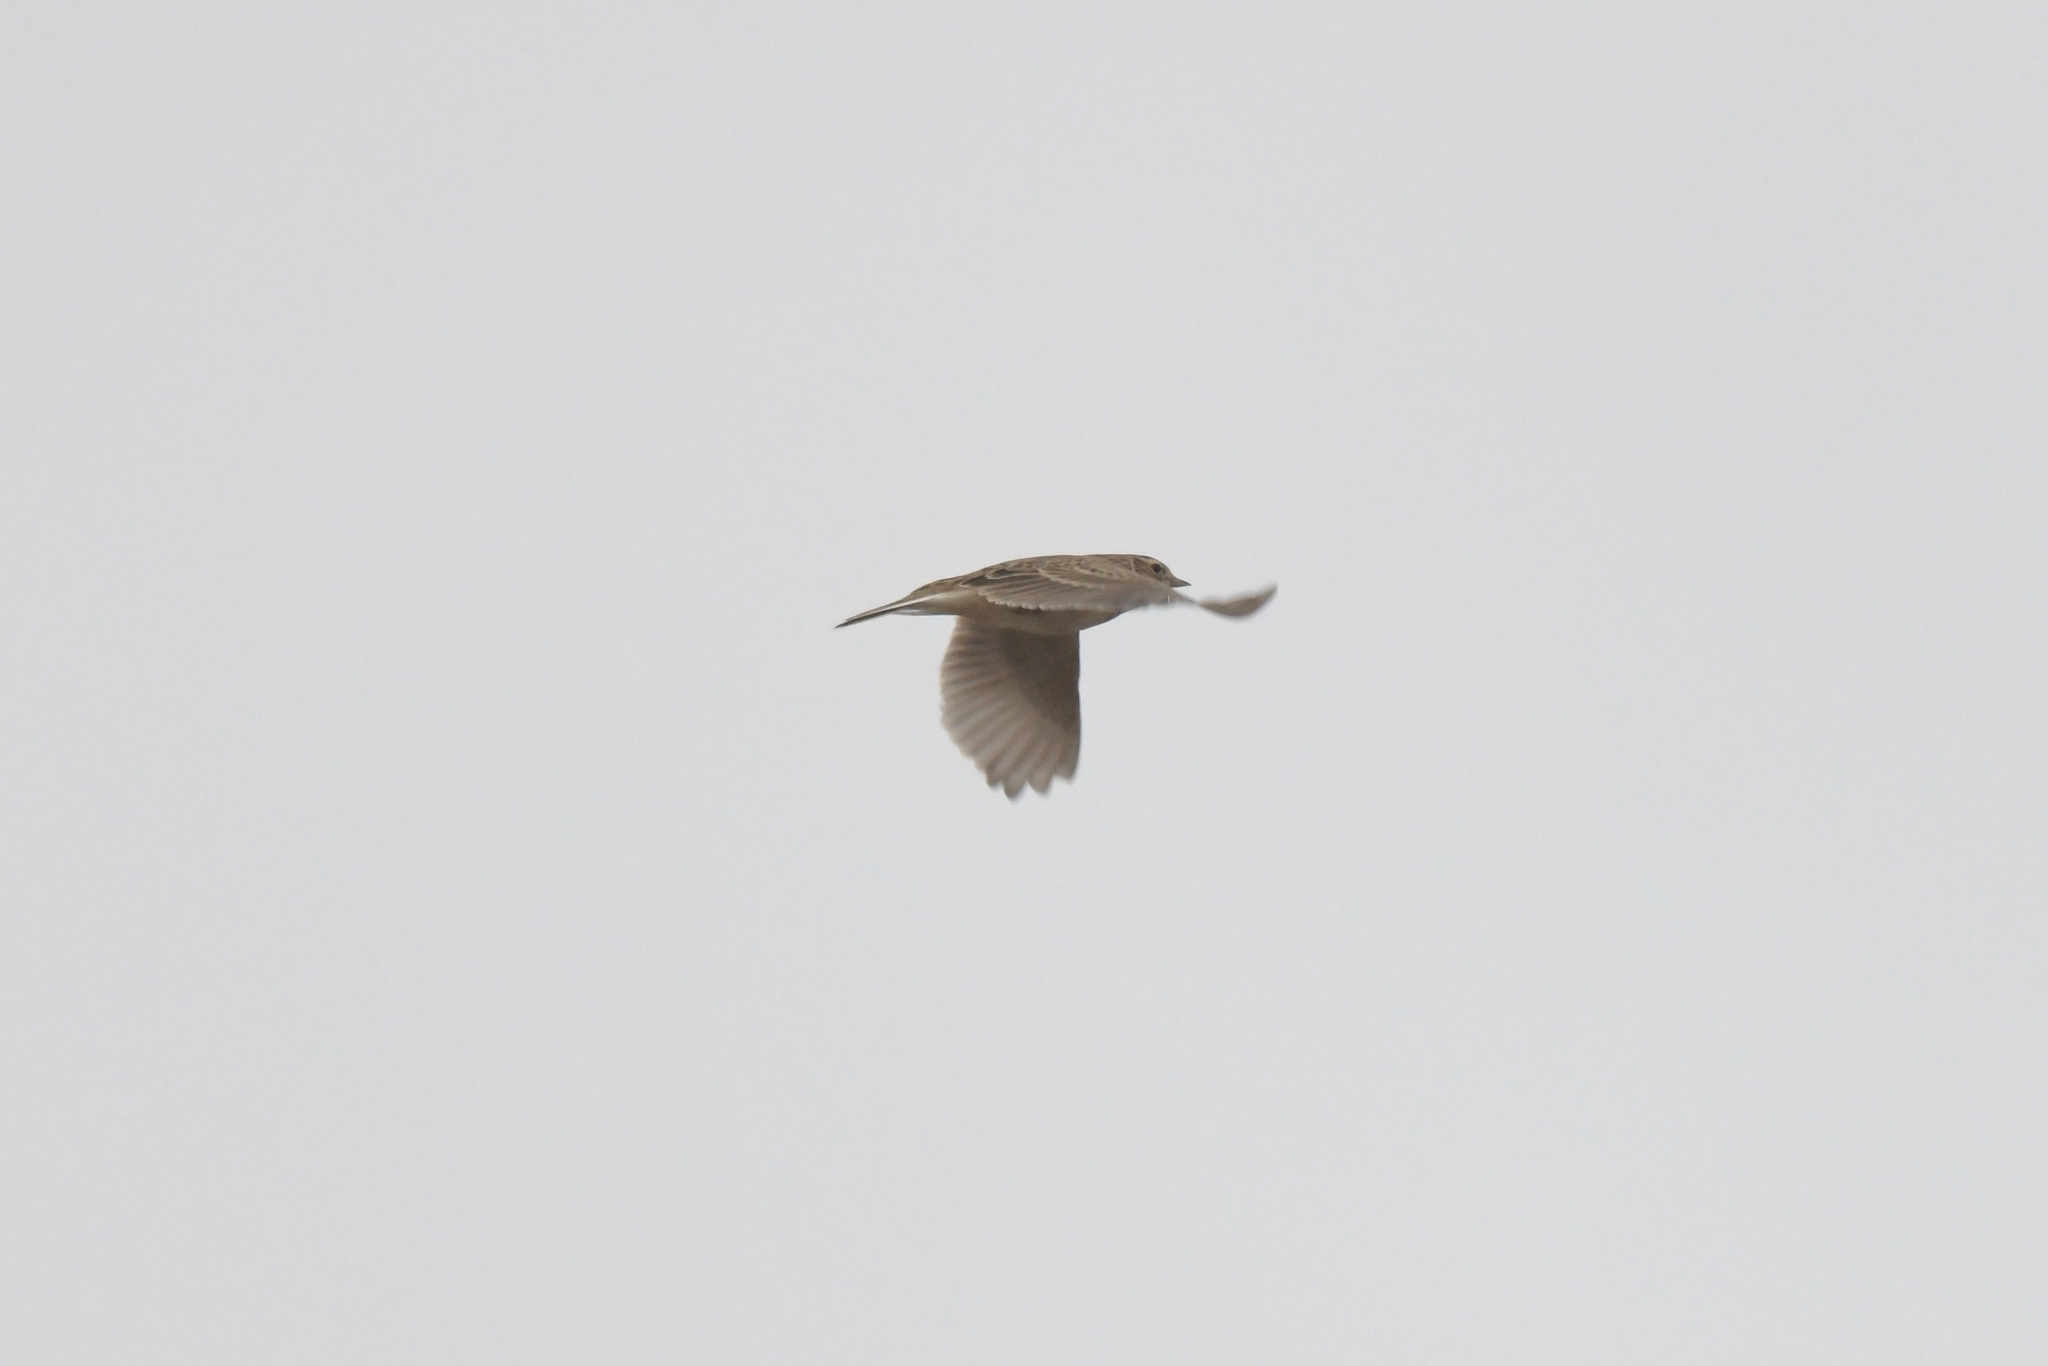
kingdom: Animalia
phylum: Chordata
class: Aves
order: Passeriformes
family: Alaudidae
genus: Alauda
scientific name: Alauda gulgula
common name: Oriental skylark
